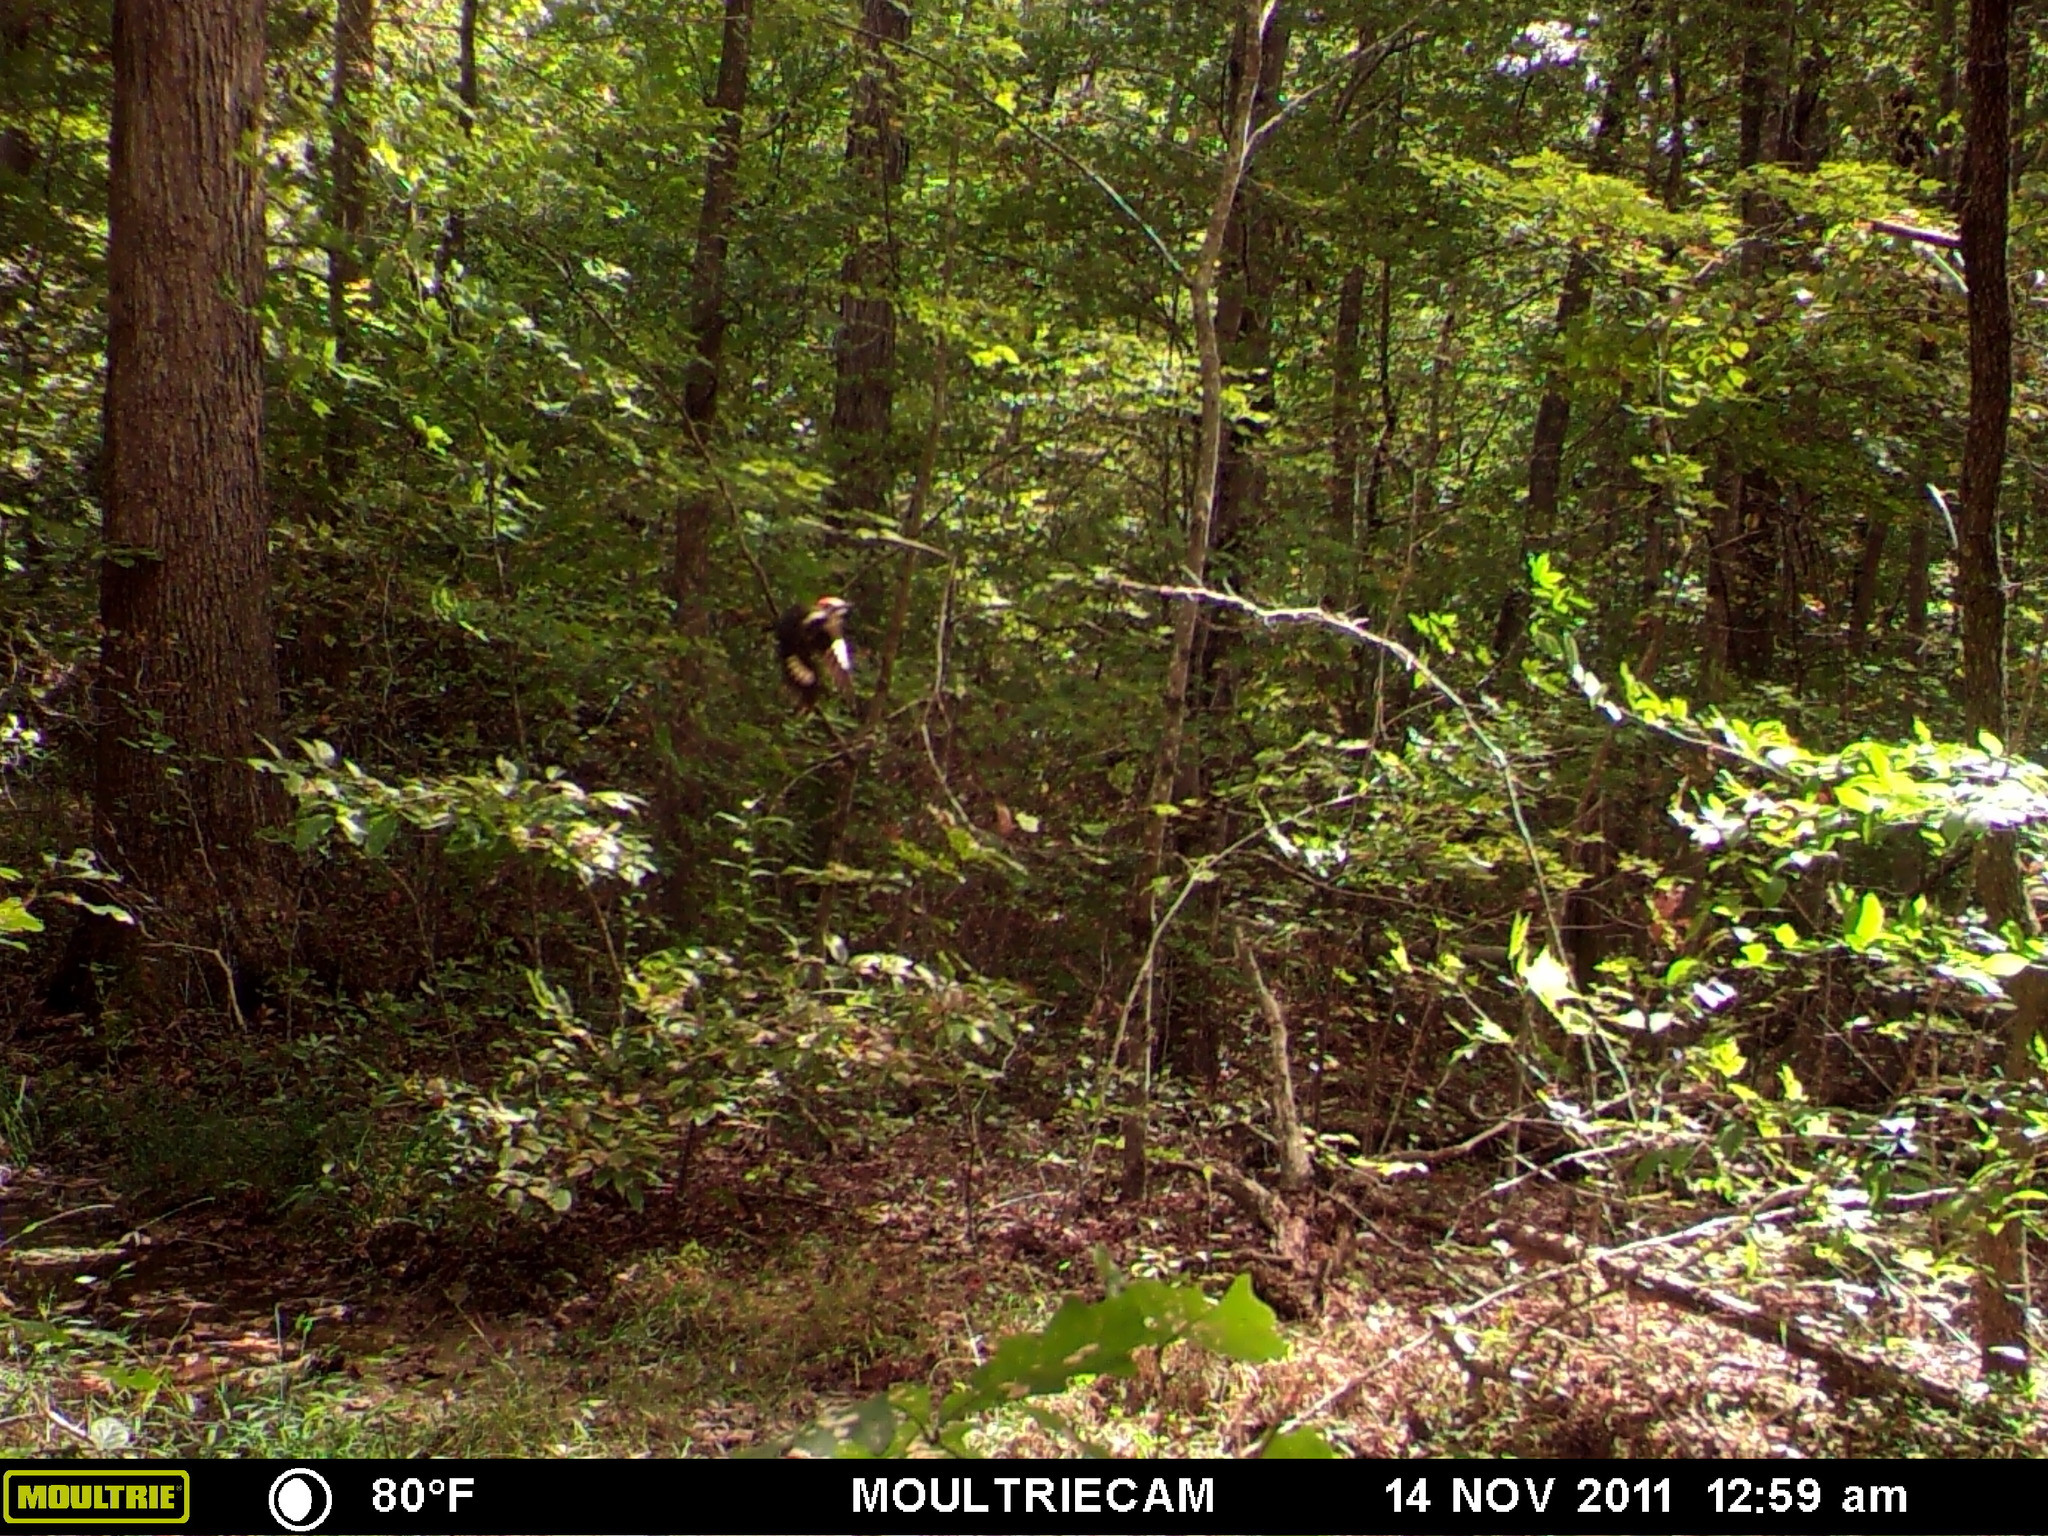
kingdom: Animalia
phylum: Chordata
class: Aves
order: Piciformes
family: Picidae
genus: Dryocopus
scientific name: Dryocopus pileatus
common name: Pileated woodpecker
